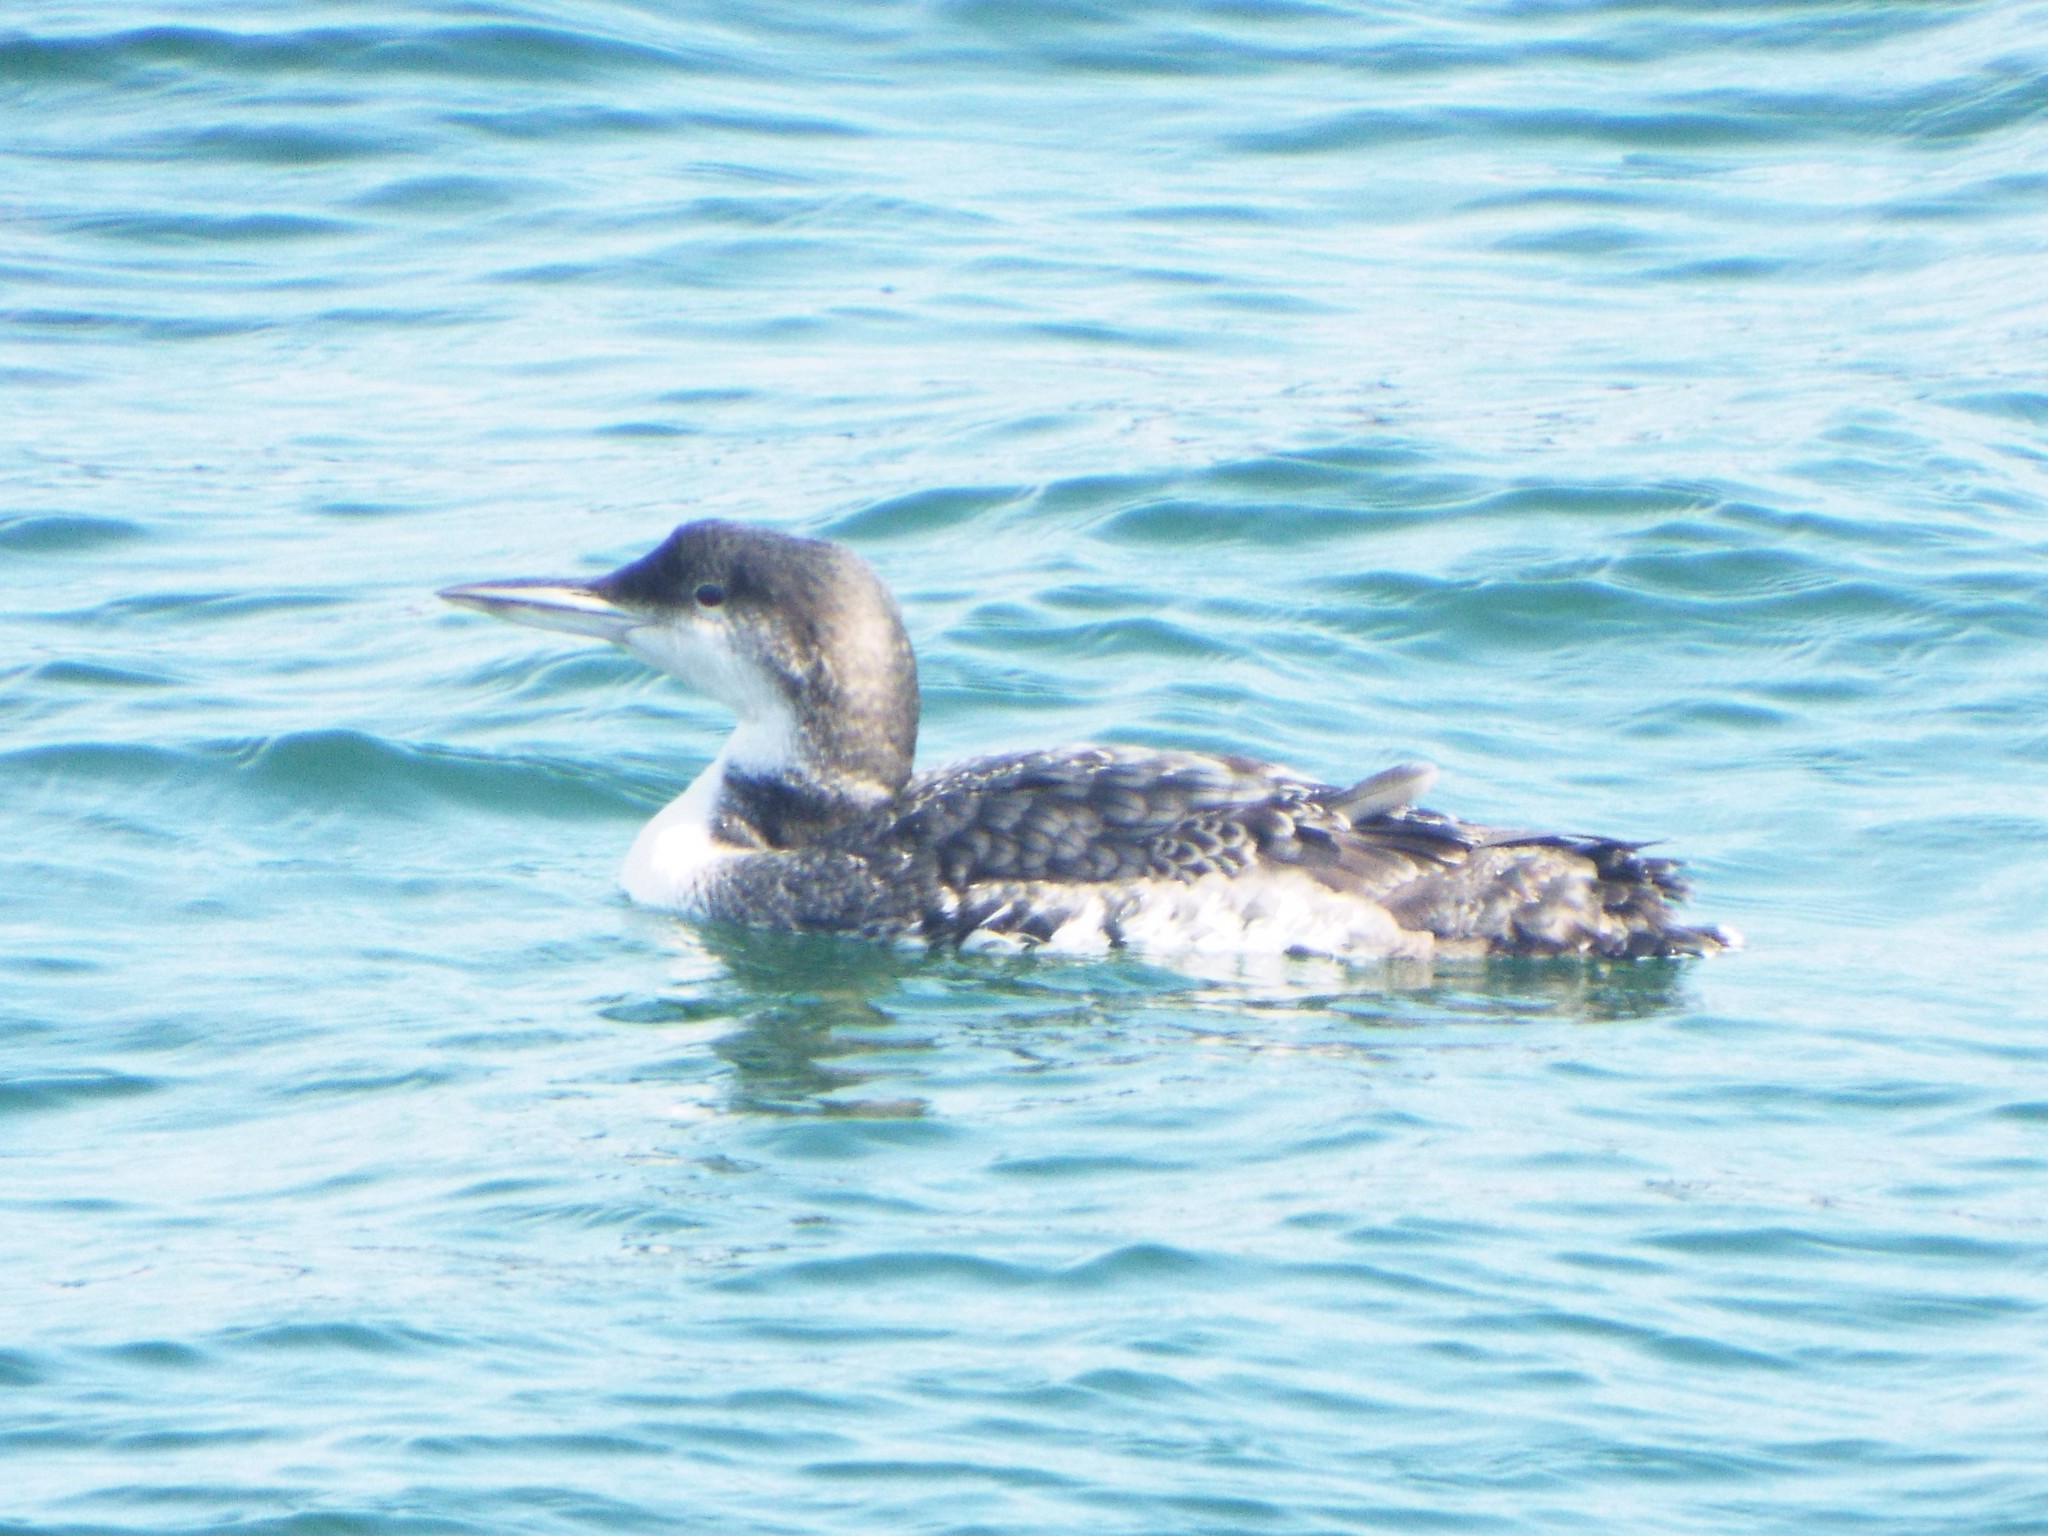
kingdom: Animalia
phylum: Chordata
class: Aves
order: Gaviiformes
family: Gaviidae
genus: Gavia
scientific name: Gavia immer
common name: Common loon
